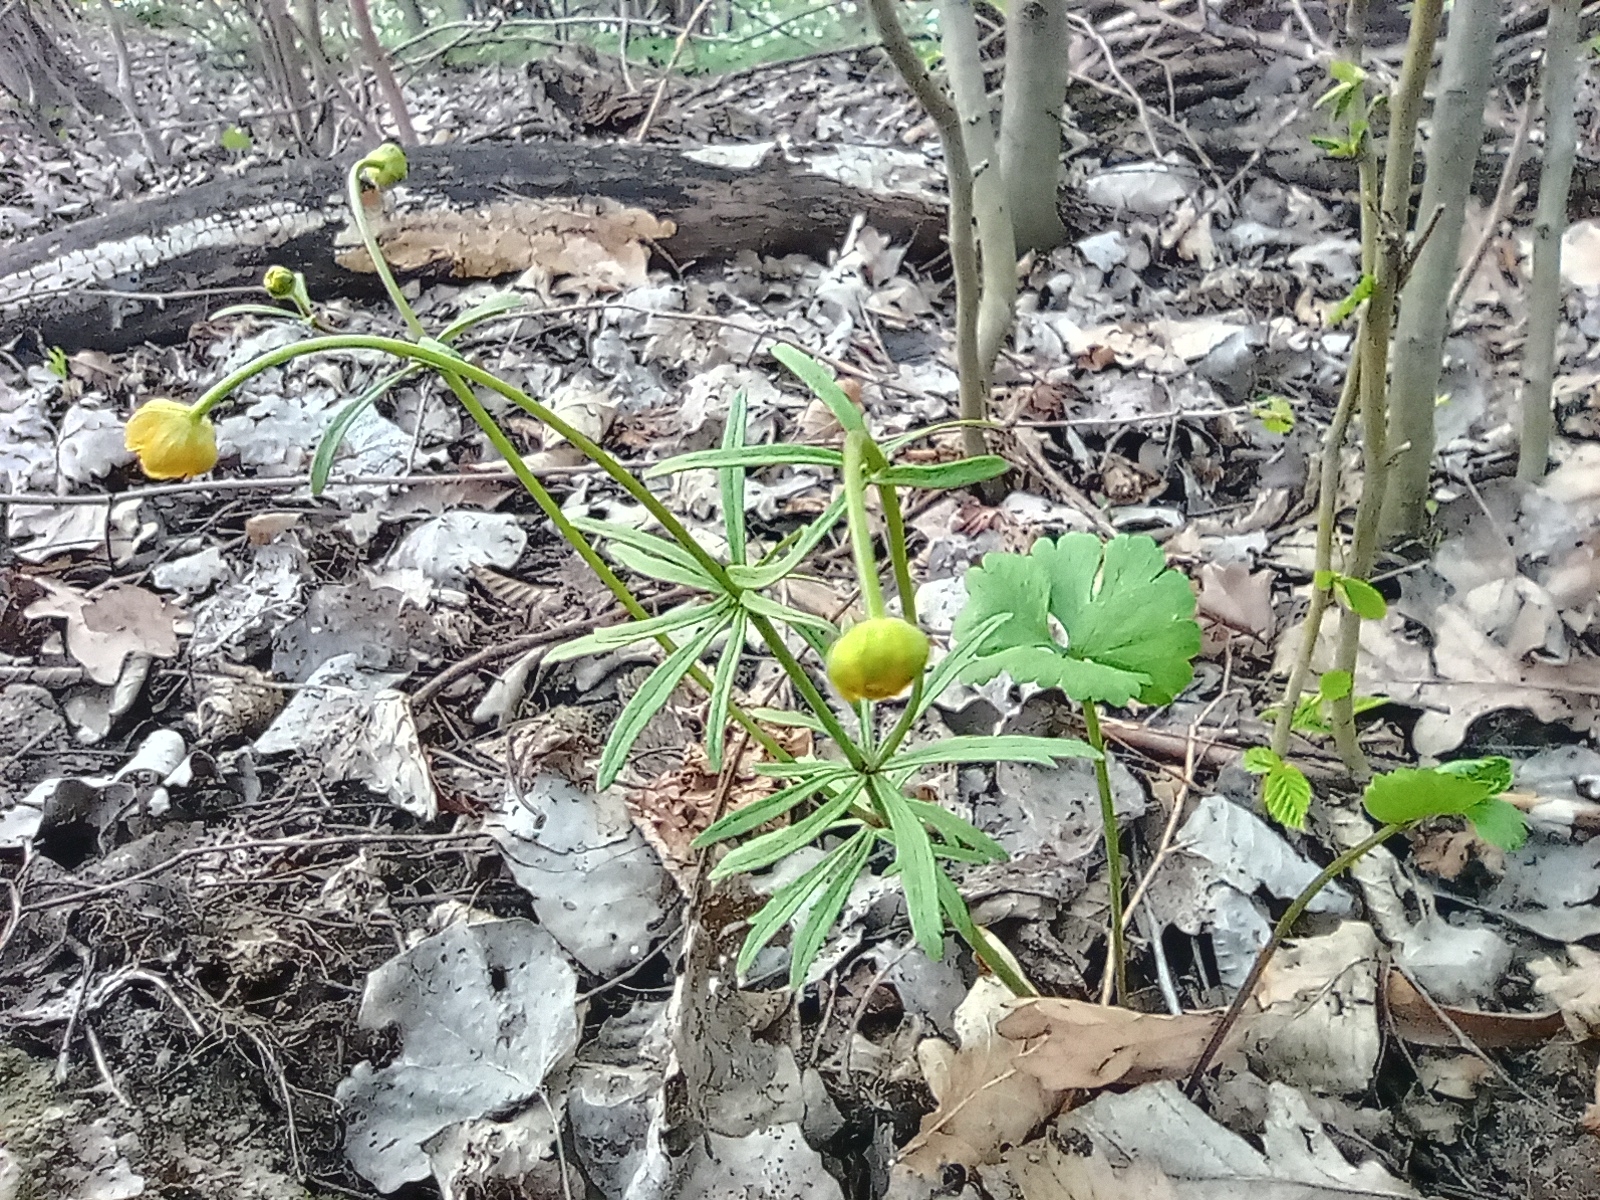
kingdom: Plantae
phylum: Tracheophyta
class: Magnoliopsida
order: Ranunculales
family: Ranunculaceae
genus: Ranunculus
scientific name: Ranunculus cassubicus
